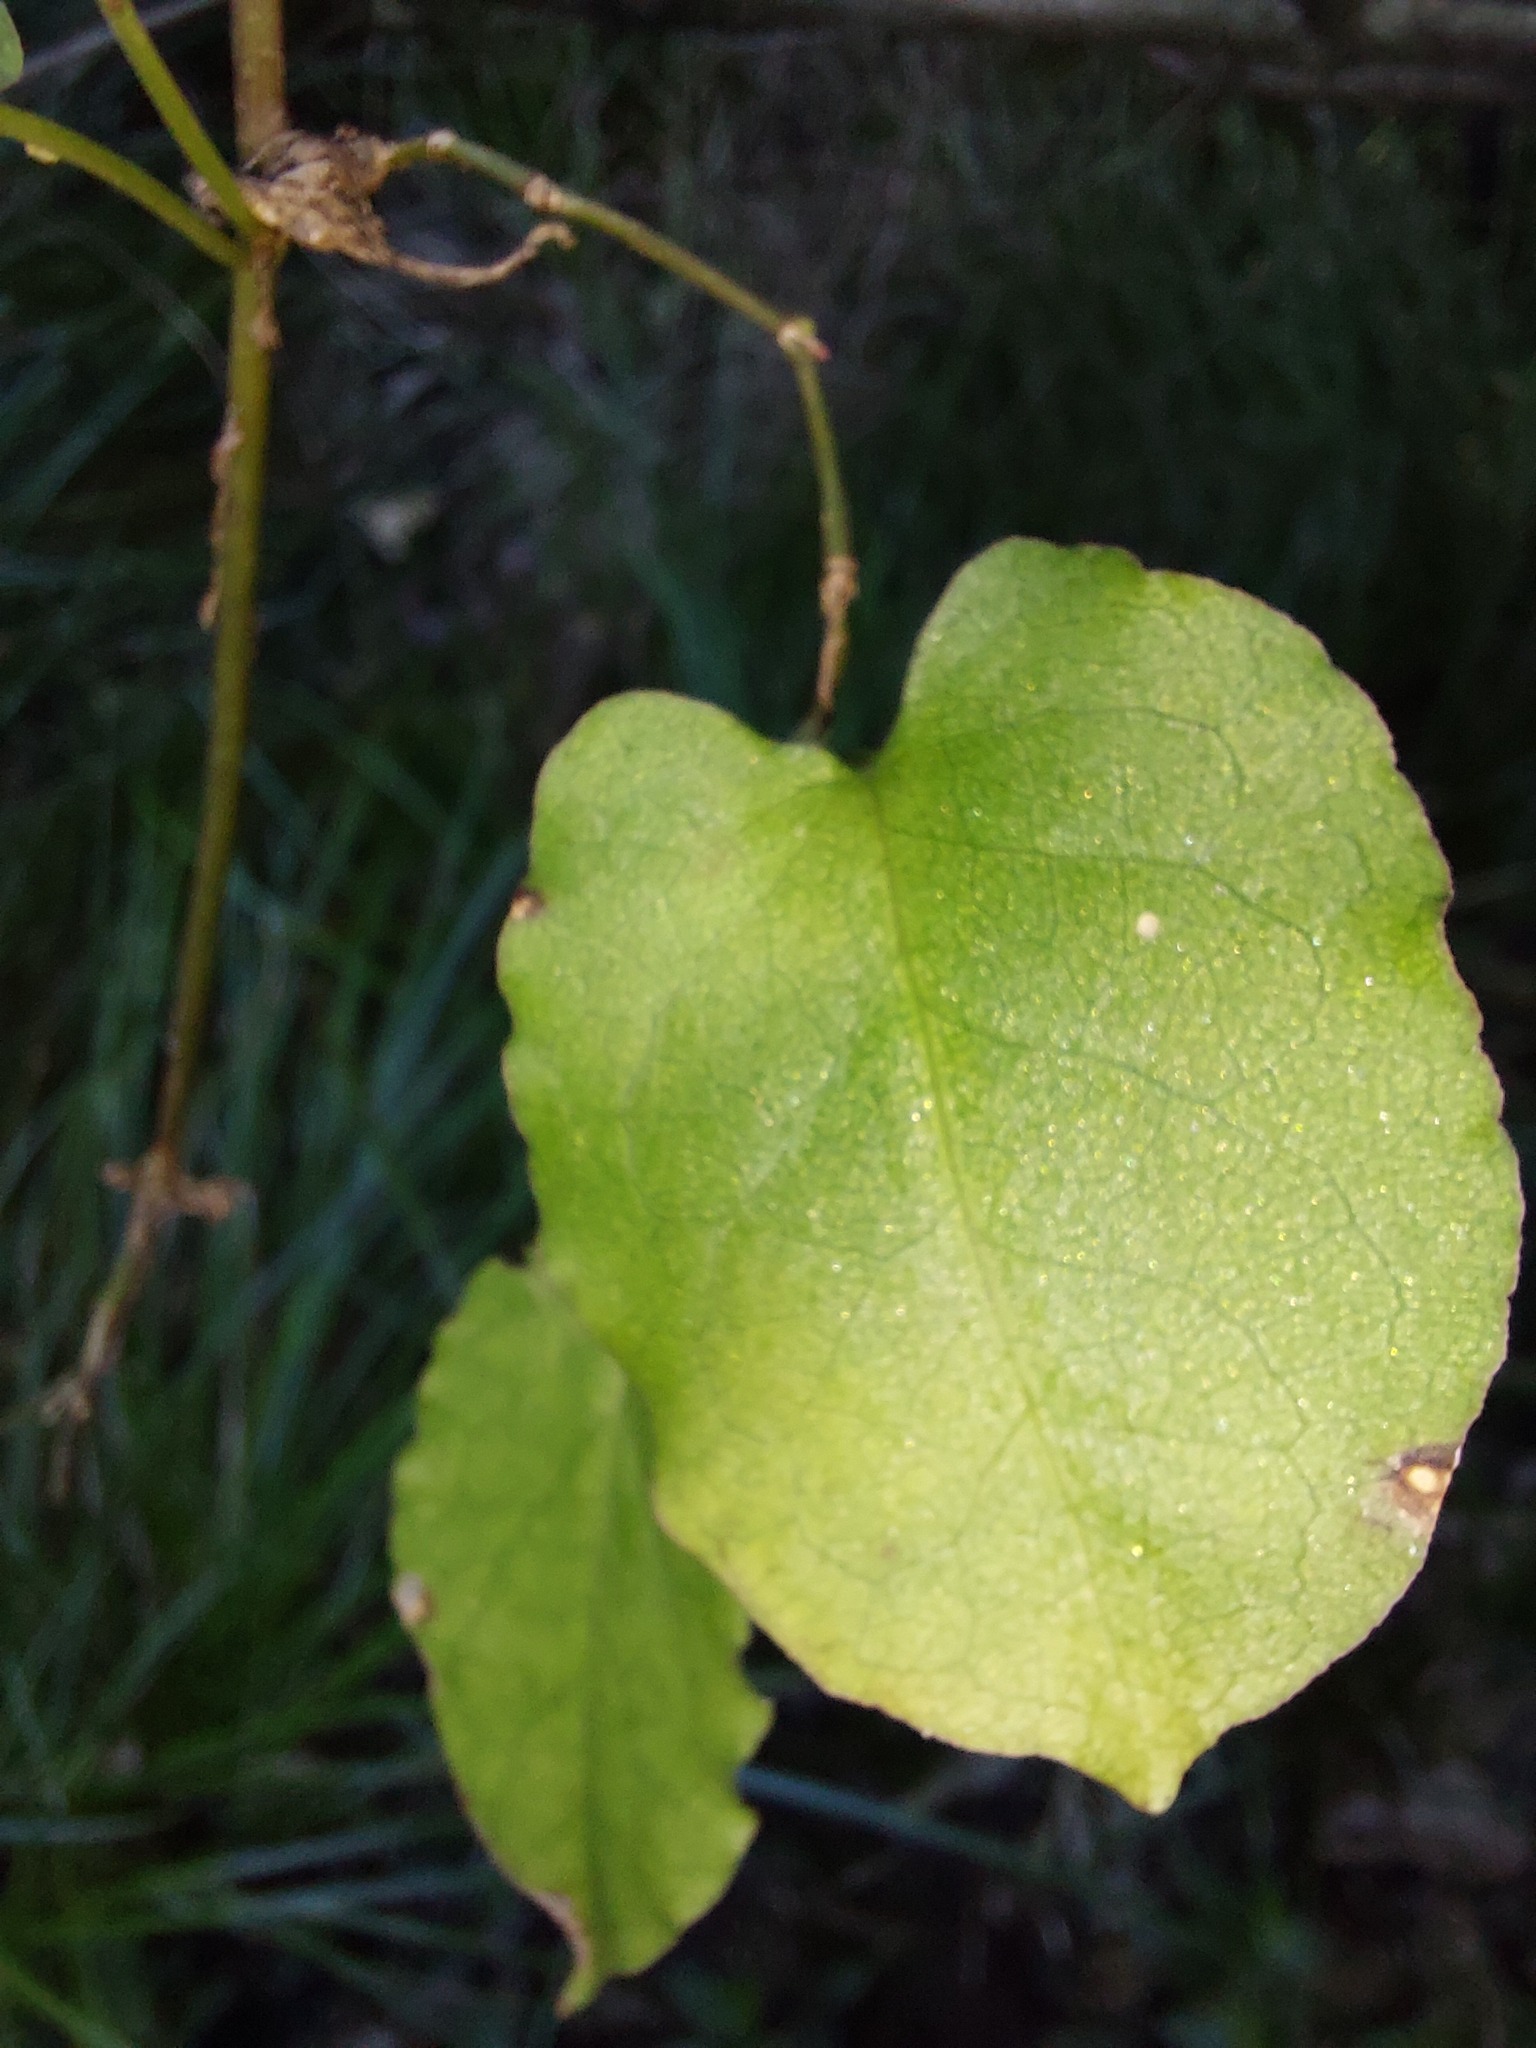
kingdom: Plantae
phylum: Tracheophyta
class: Magnoliopsida
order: Caryophyllales
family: Polygonaceae
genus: Muehlenbeckia
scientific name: Muehlenbeckia australis
